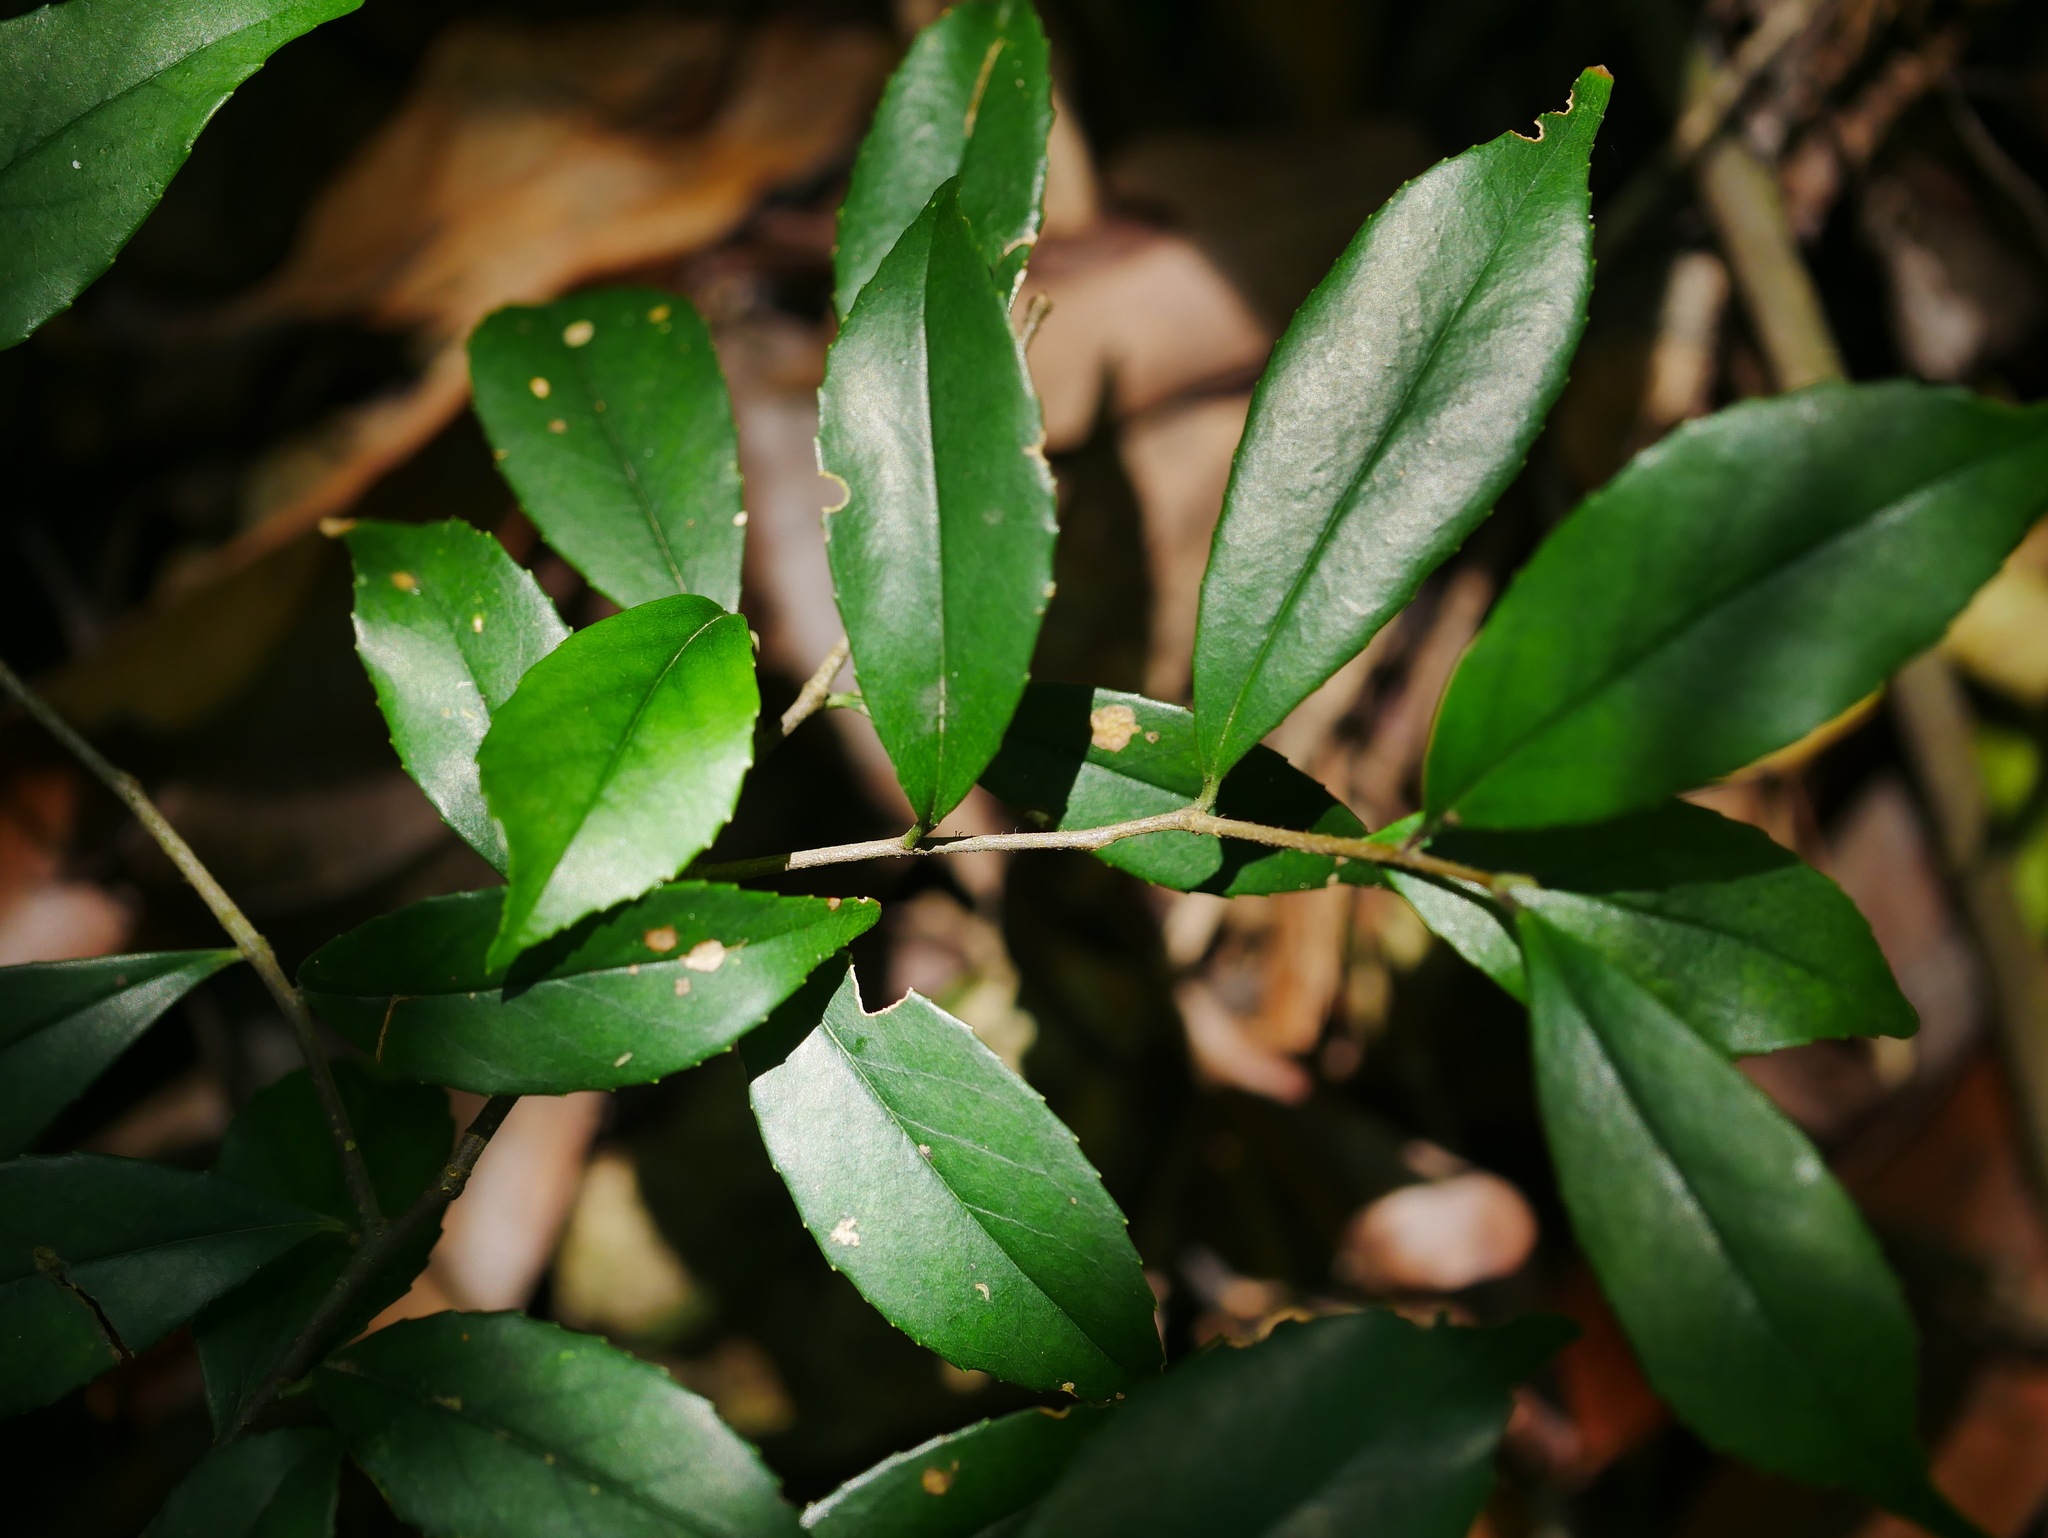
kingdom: Plantae
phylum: Tracheophyta
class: Magnoliopsida
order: Ericales
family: Symplocaceae
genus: Symplocos
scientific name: Symplocos sumuntia
